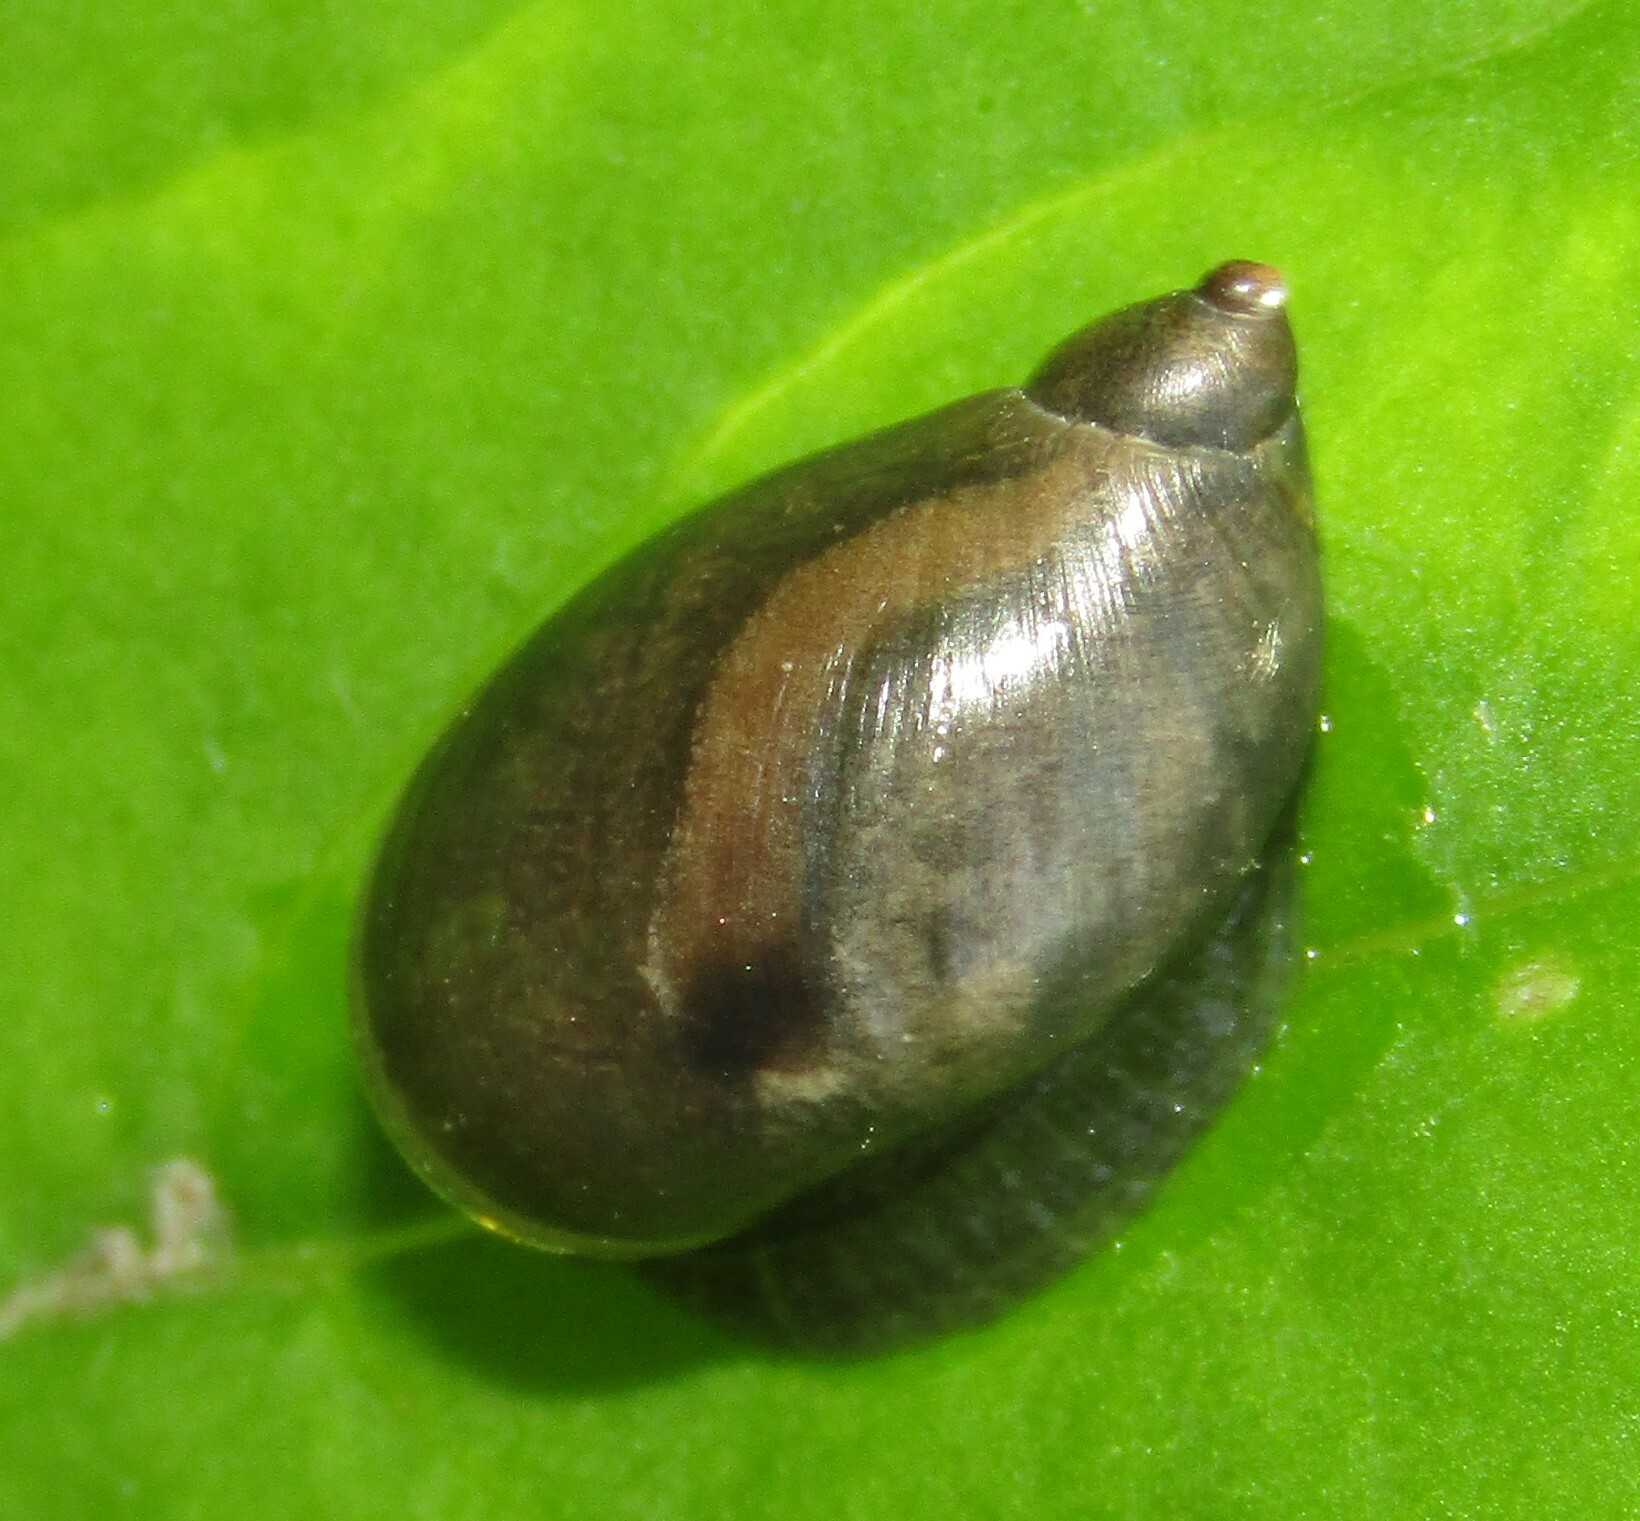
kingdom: Animalia
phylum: Mollusca
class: Gastropoda
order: Stylommatophora
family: Succineidae
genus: Succinea
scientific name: Succinea putris
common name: European ambersnail
